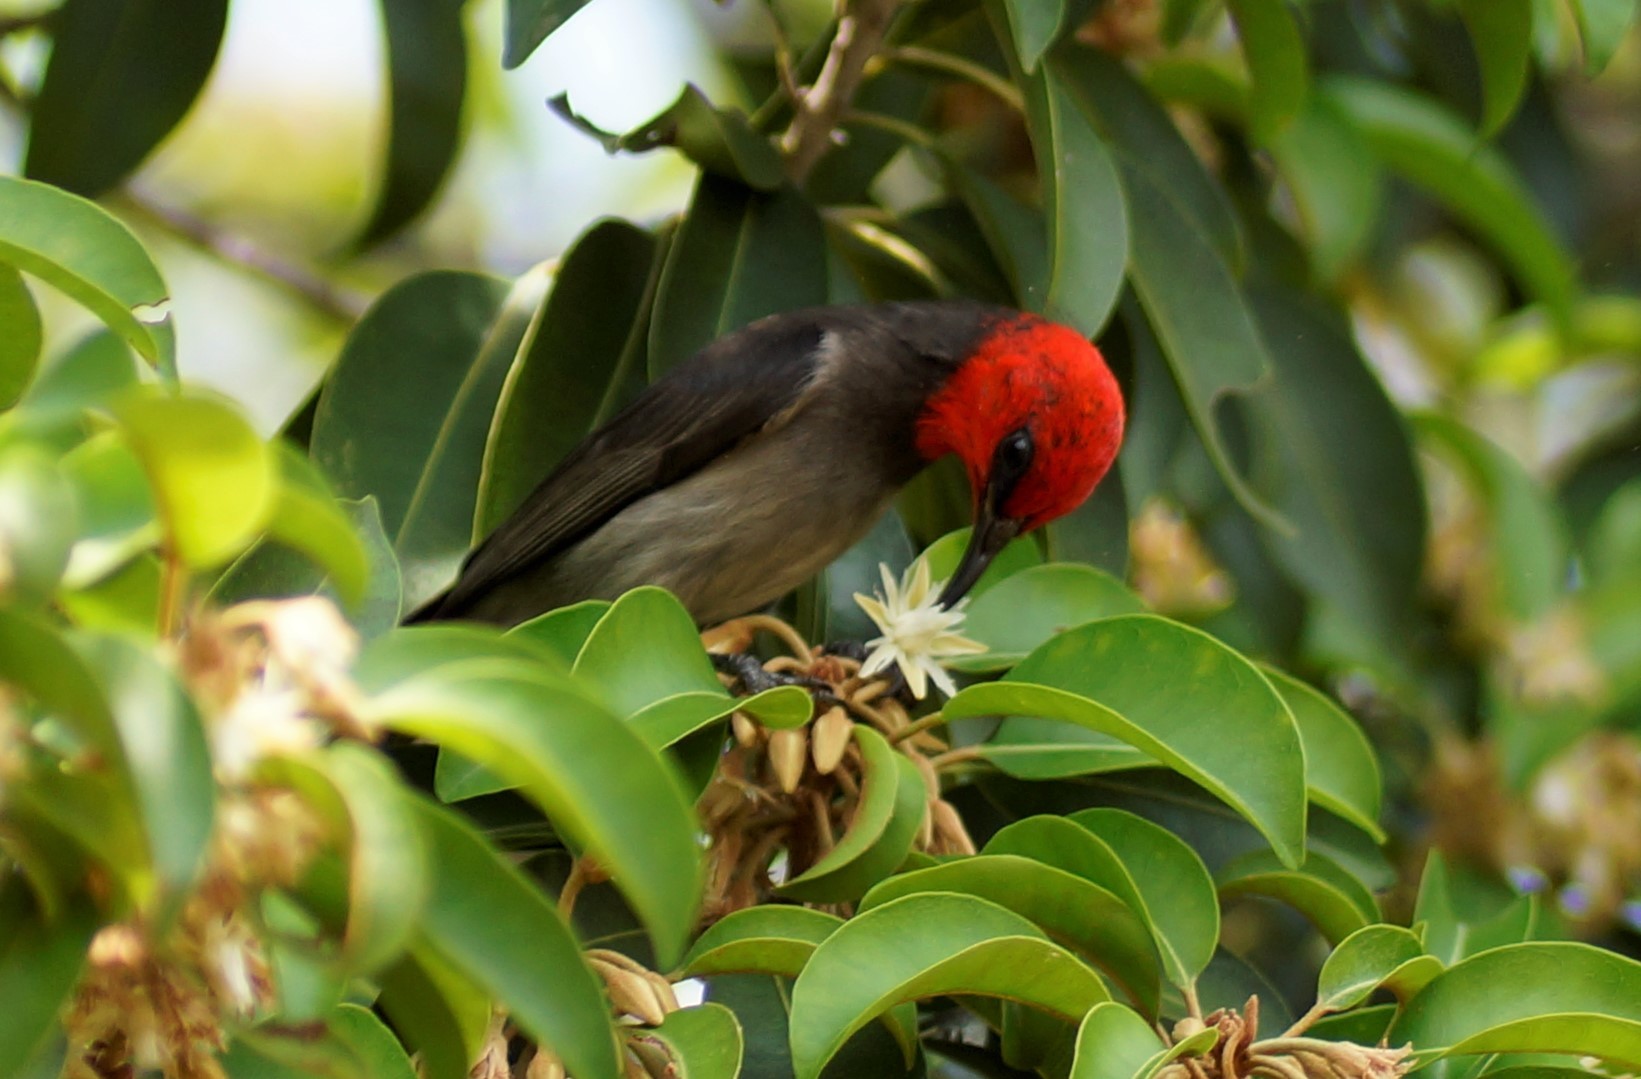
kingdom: Animalia
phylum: Chordata
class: Aves
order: Passeriformes
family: Meliphagidae
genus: Myzomela
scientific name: Myzomela erythrocephala
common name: Red-headed myzomela
